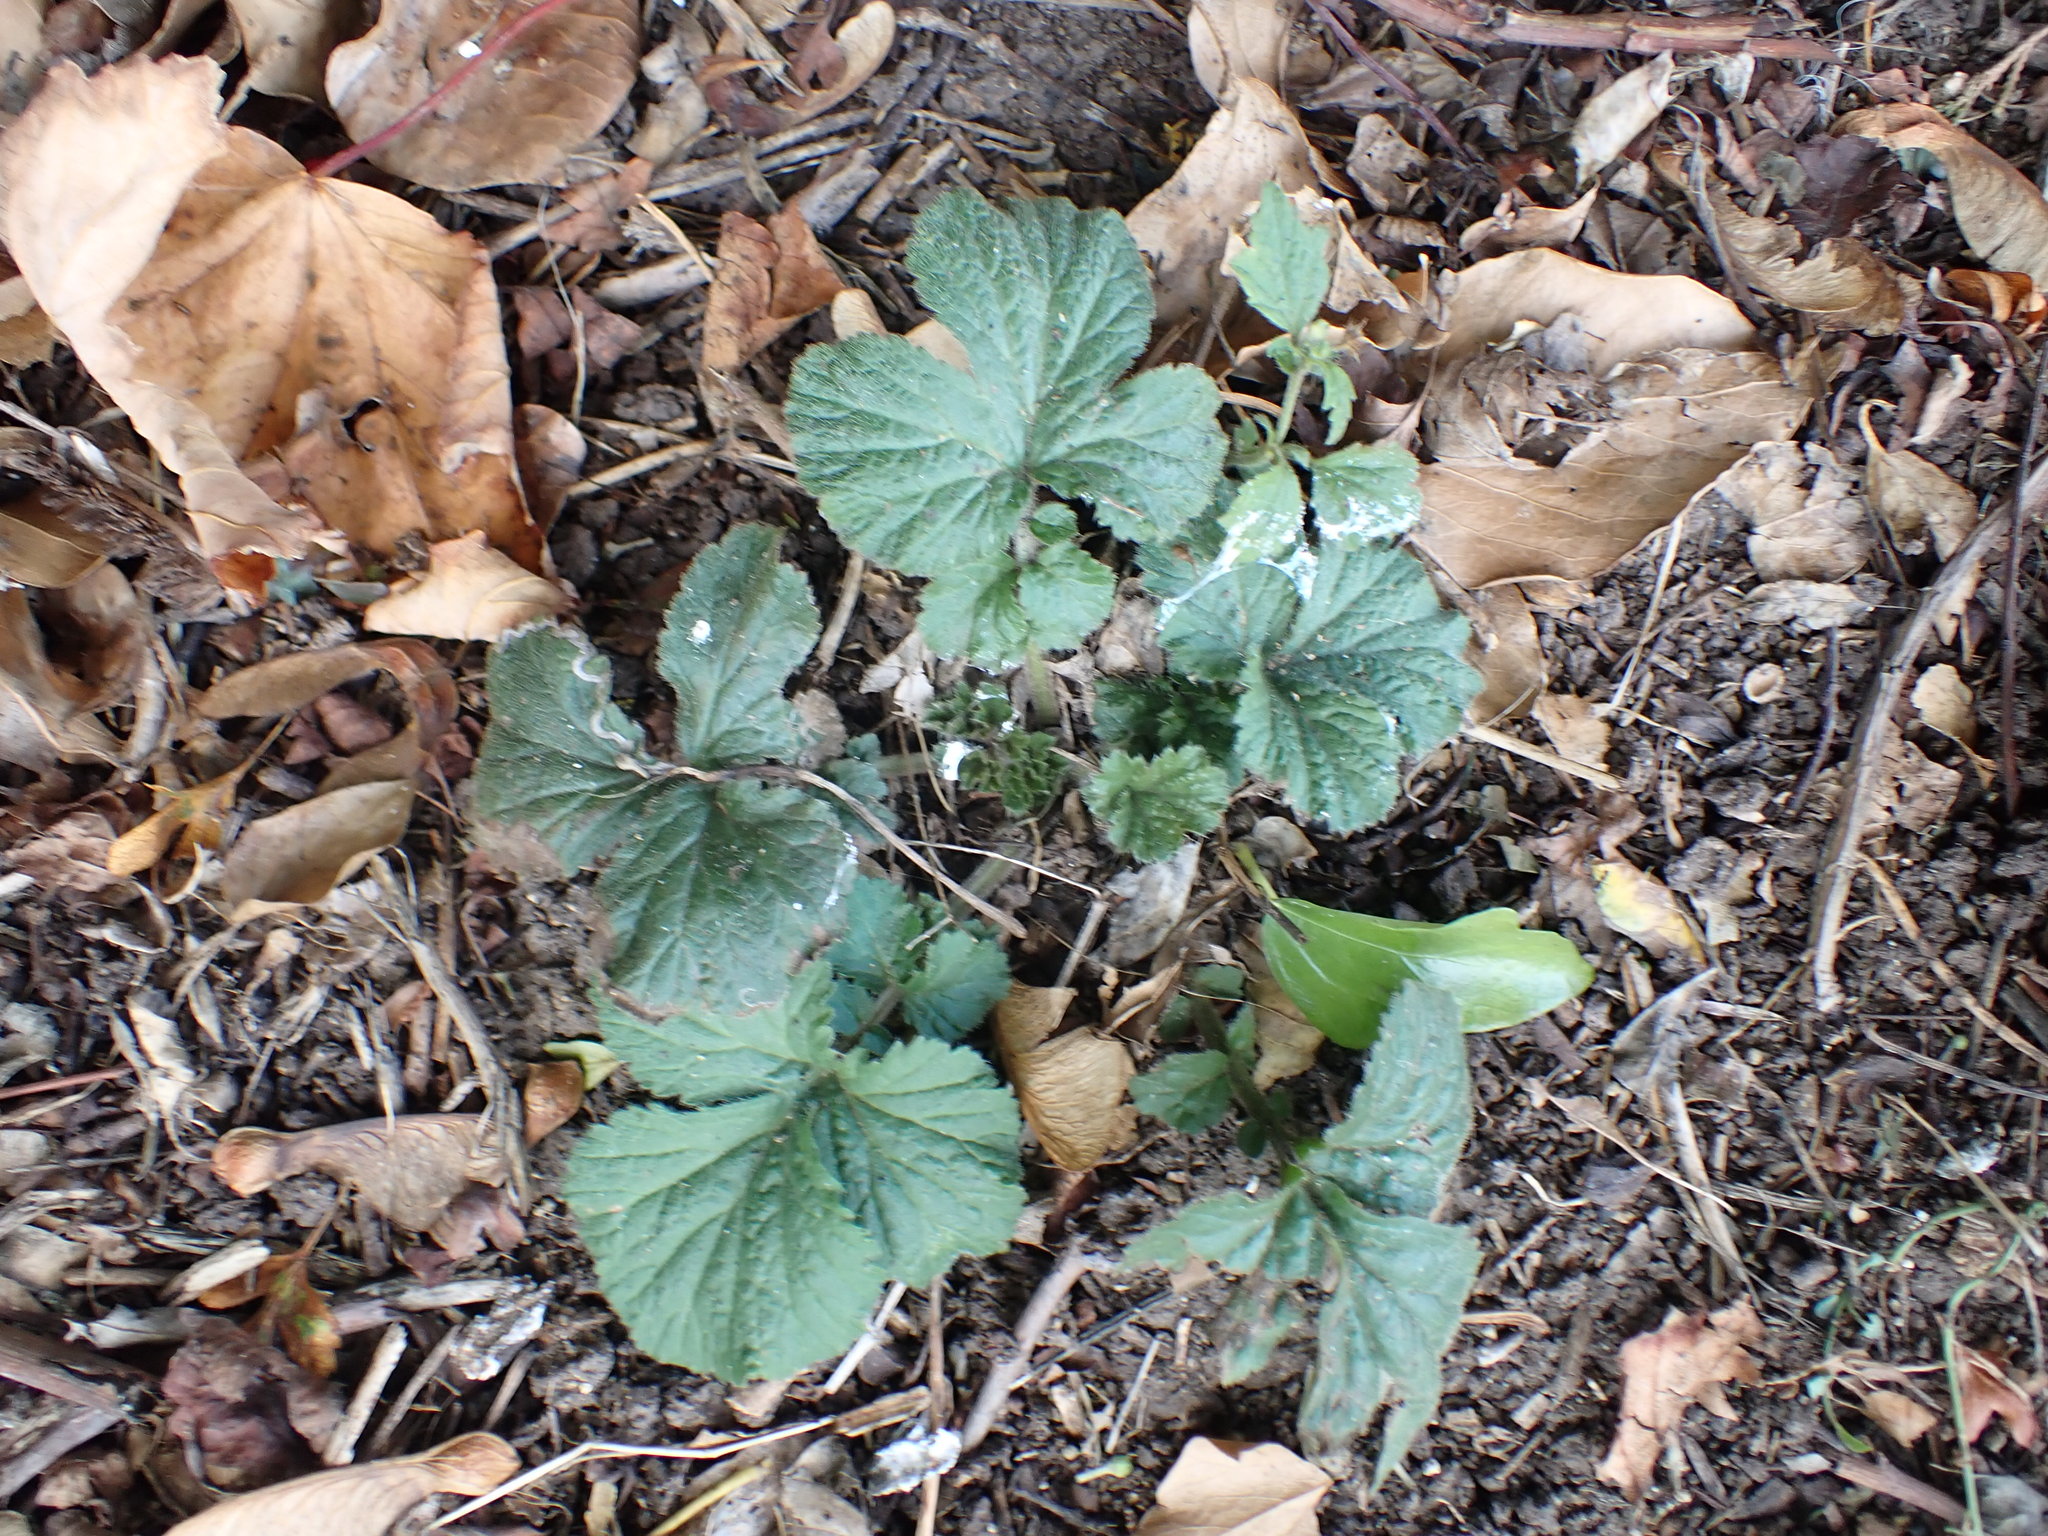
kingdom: Plantae
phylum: Tracheophyta
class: Magnoliopsida
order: Rosales
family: Rosaceae
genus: Geum
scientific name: Geum urbanum
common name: Wood avens
